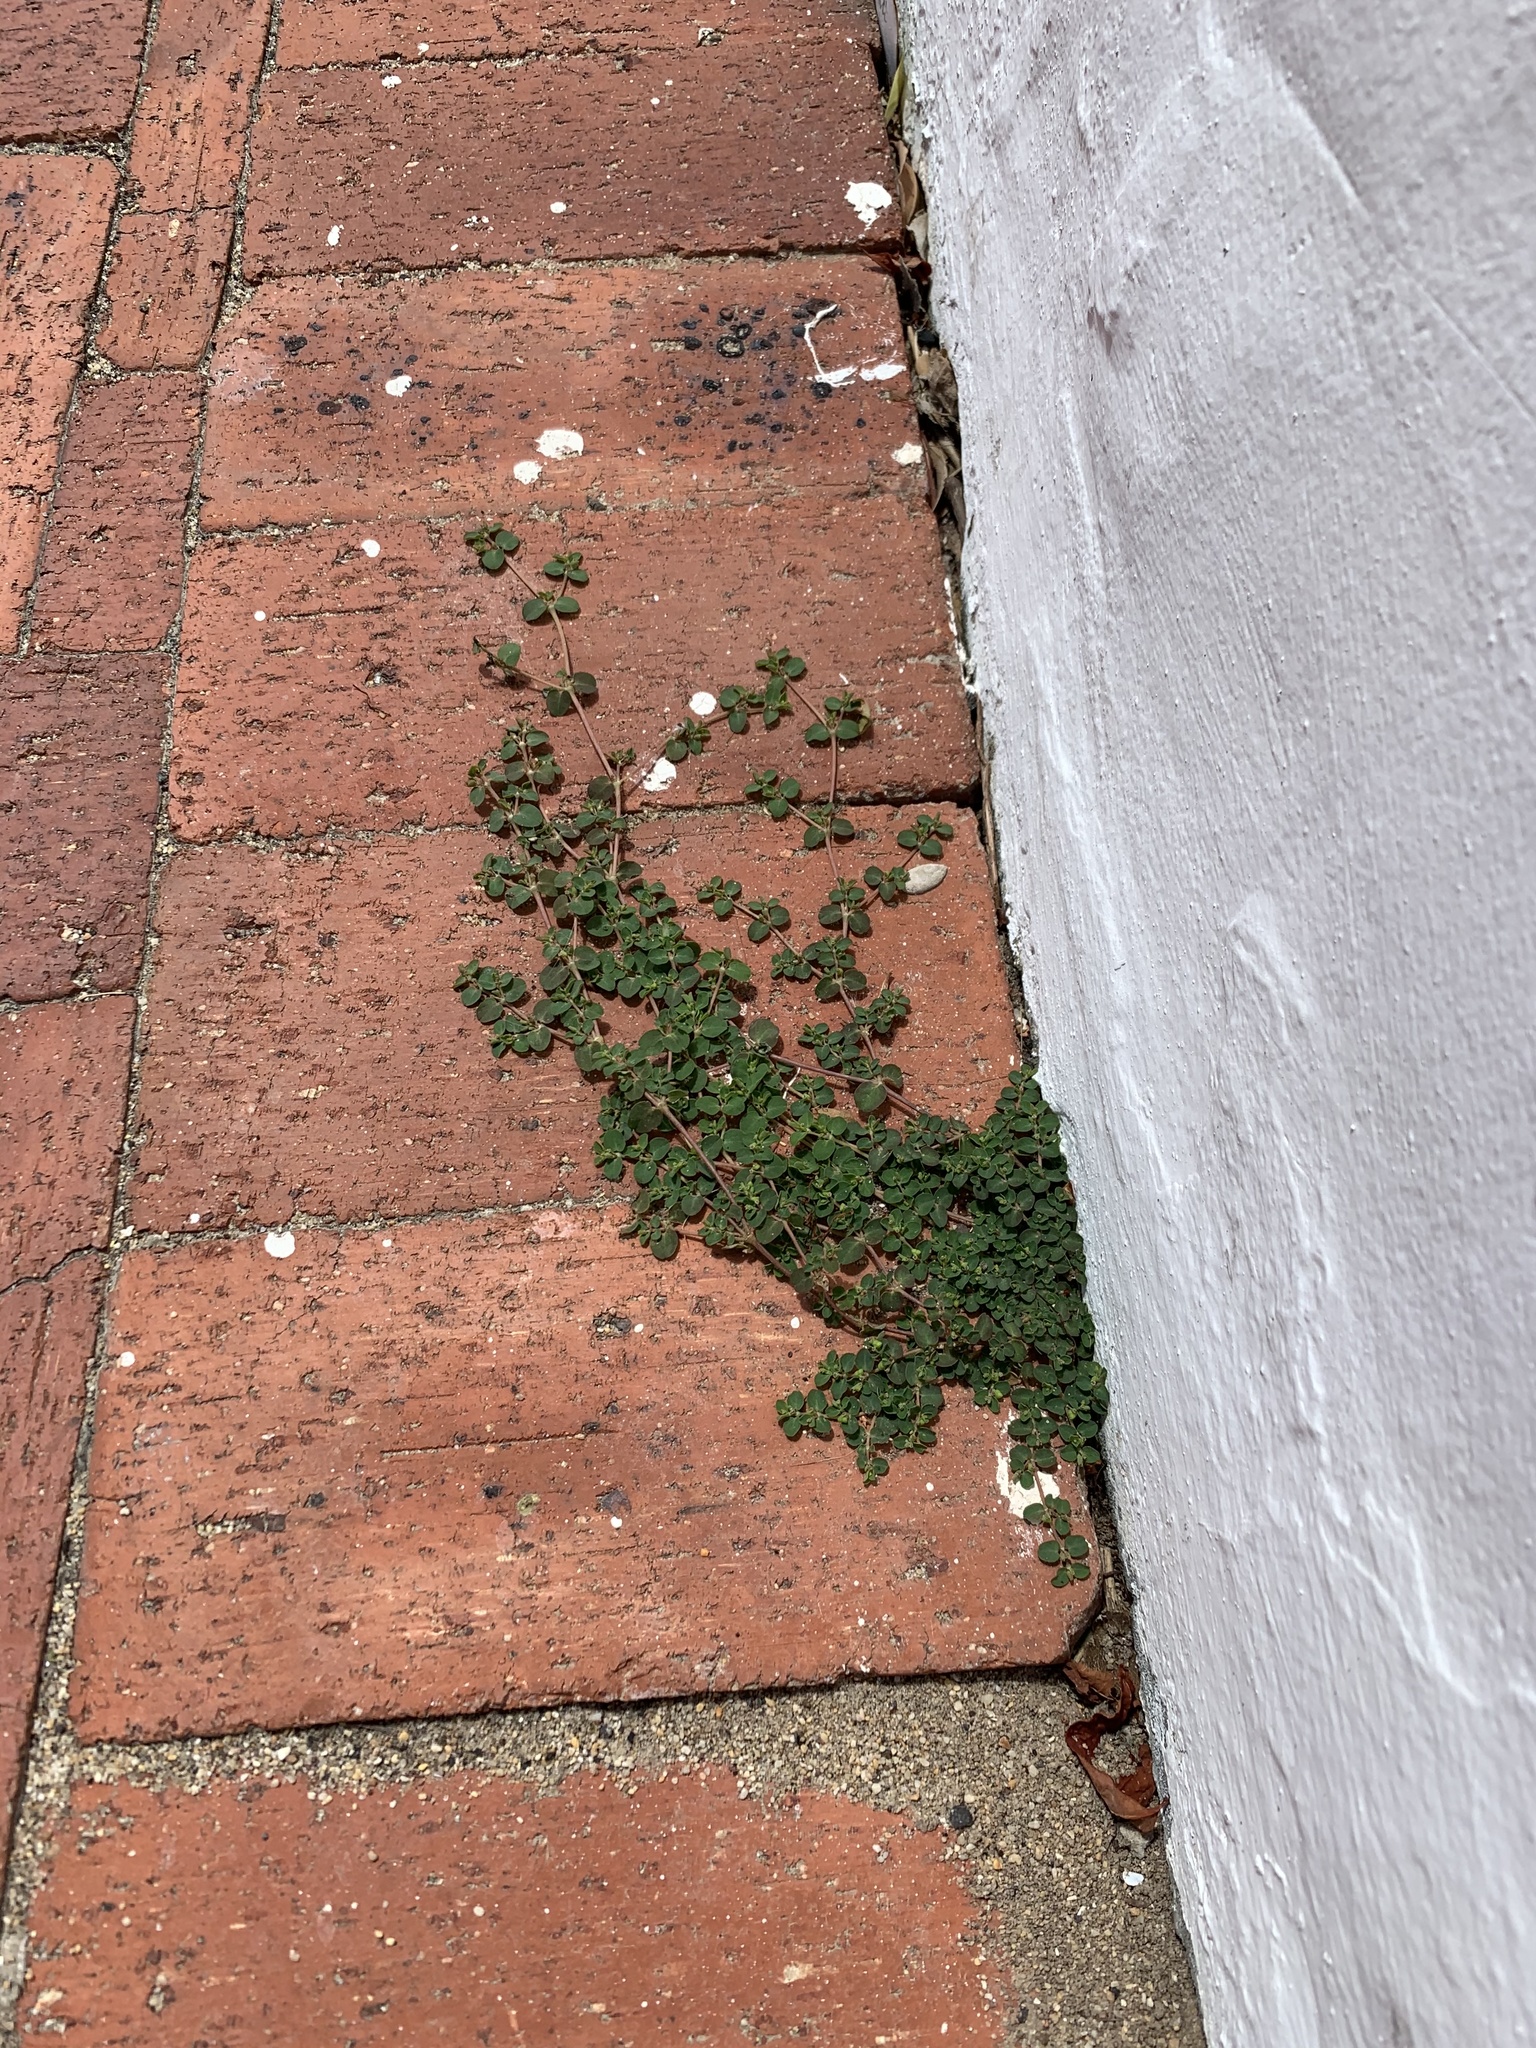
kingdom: Plantae
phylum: Tracheophyta
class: Magnoliopsida
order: Malpighiales
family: Euphorbiaceae
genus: Euphorbia
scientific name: Euphorbia serpens
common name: Matted sandmat
